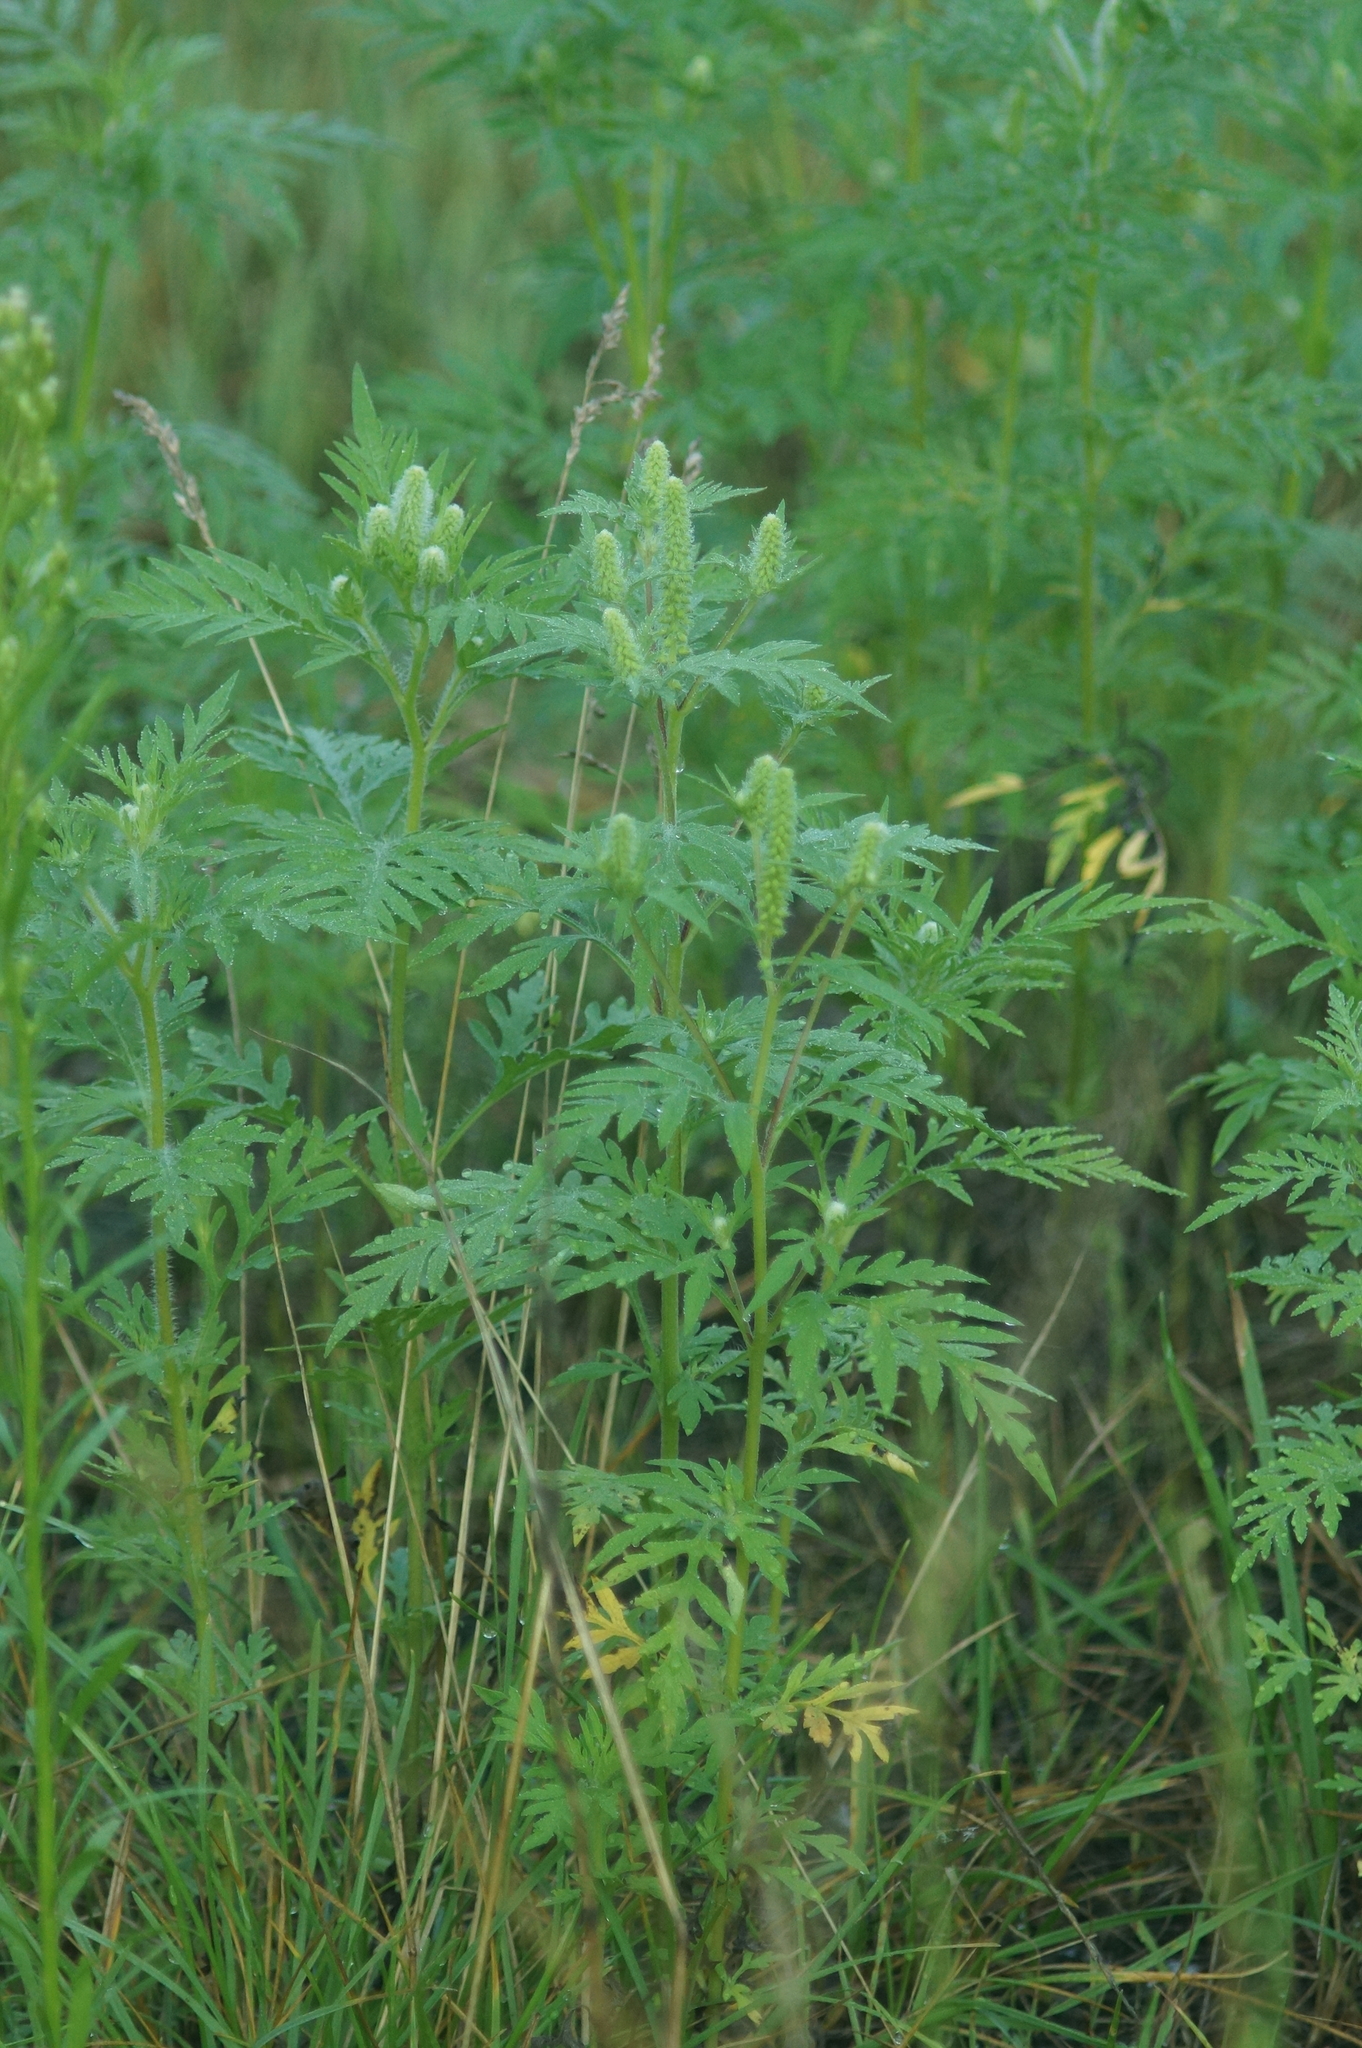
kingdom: Plantae
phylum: Tracheophyta
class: Magnoliopsida
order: Asterales
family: Asteraceae
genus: Ambrosia
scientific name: Ambrosia artemisiifolia
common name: Annual ragweed
